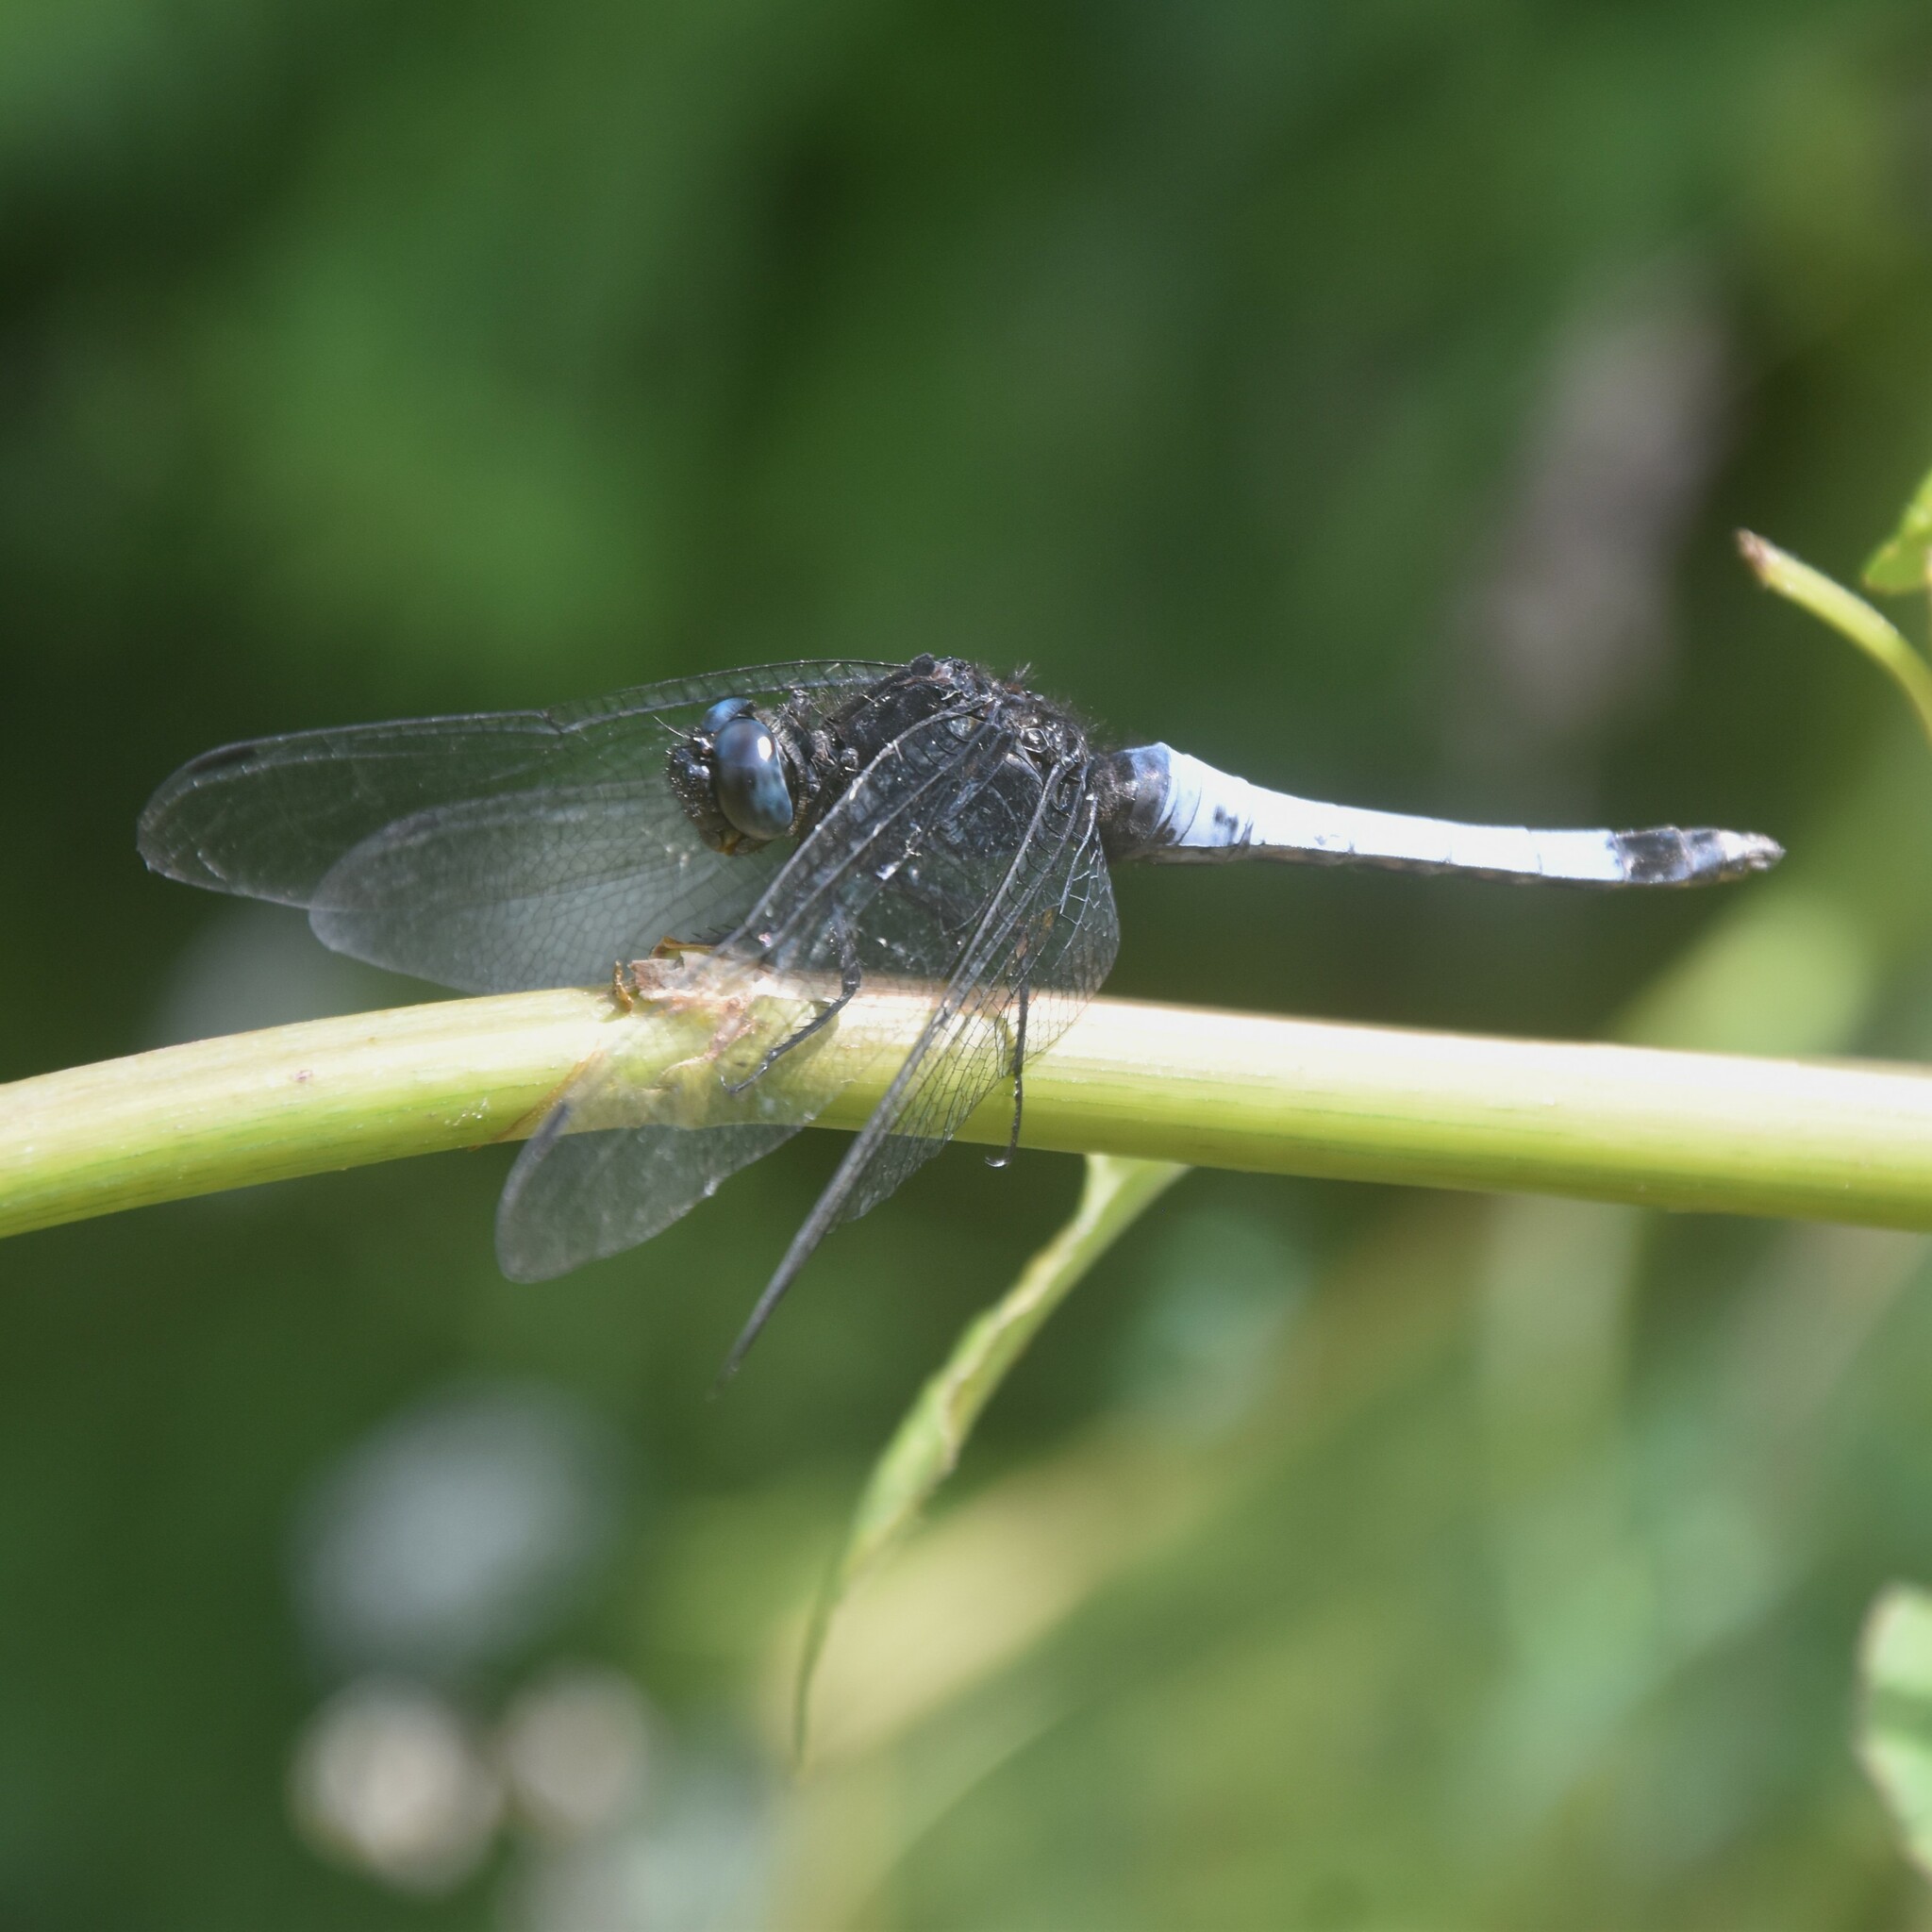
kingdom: Animalia
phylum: Arthropoda
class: Insecta
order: Odonata
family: Libellulidae
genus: Orthetrum
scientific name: Orthetrum triangulare
